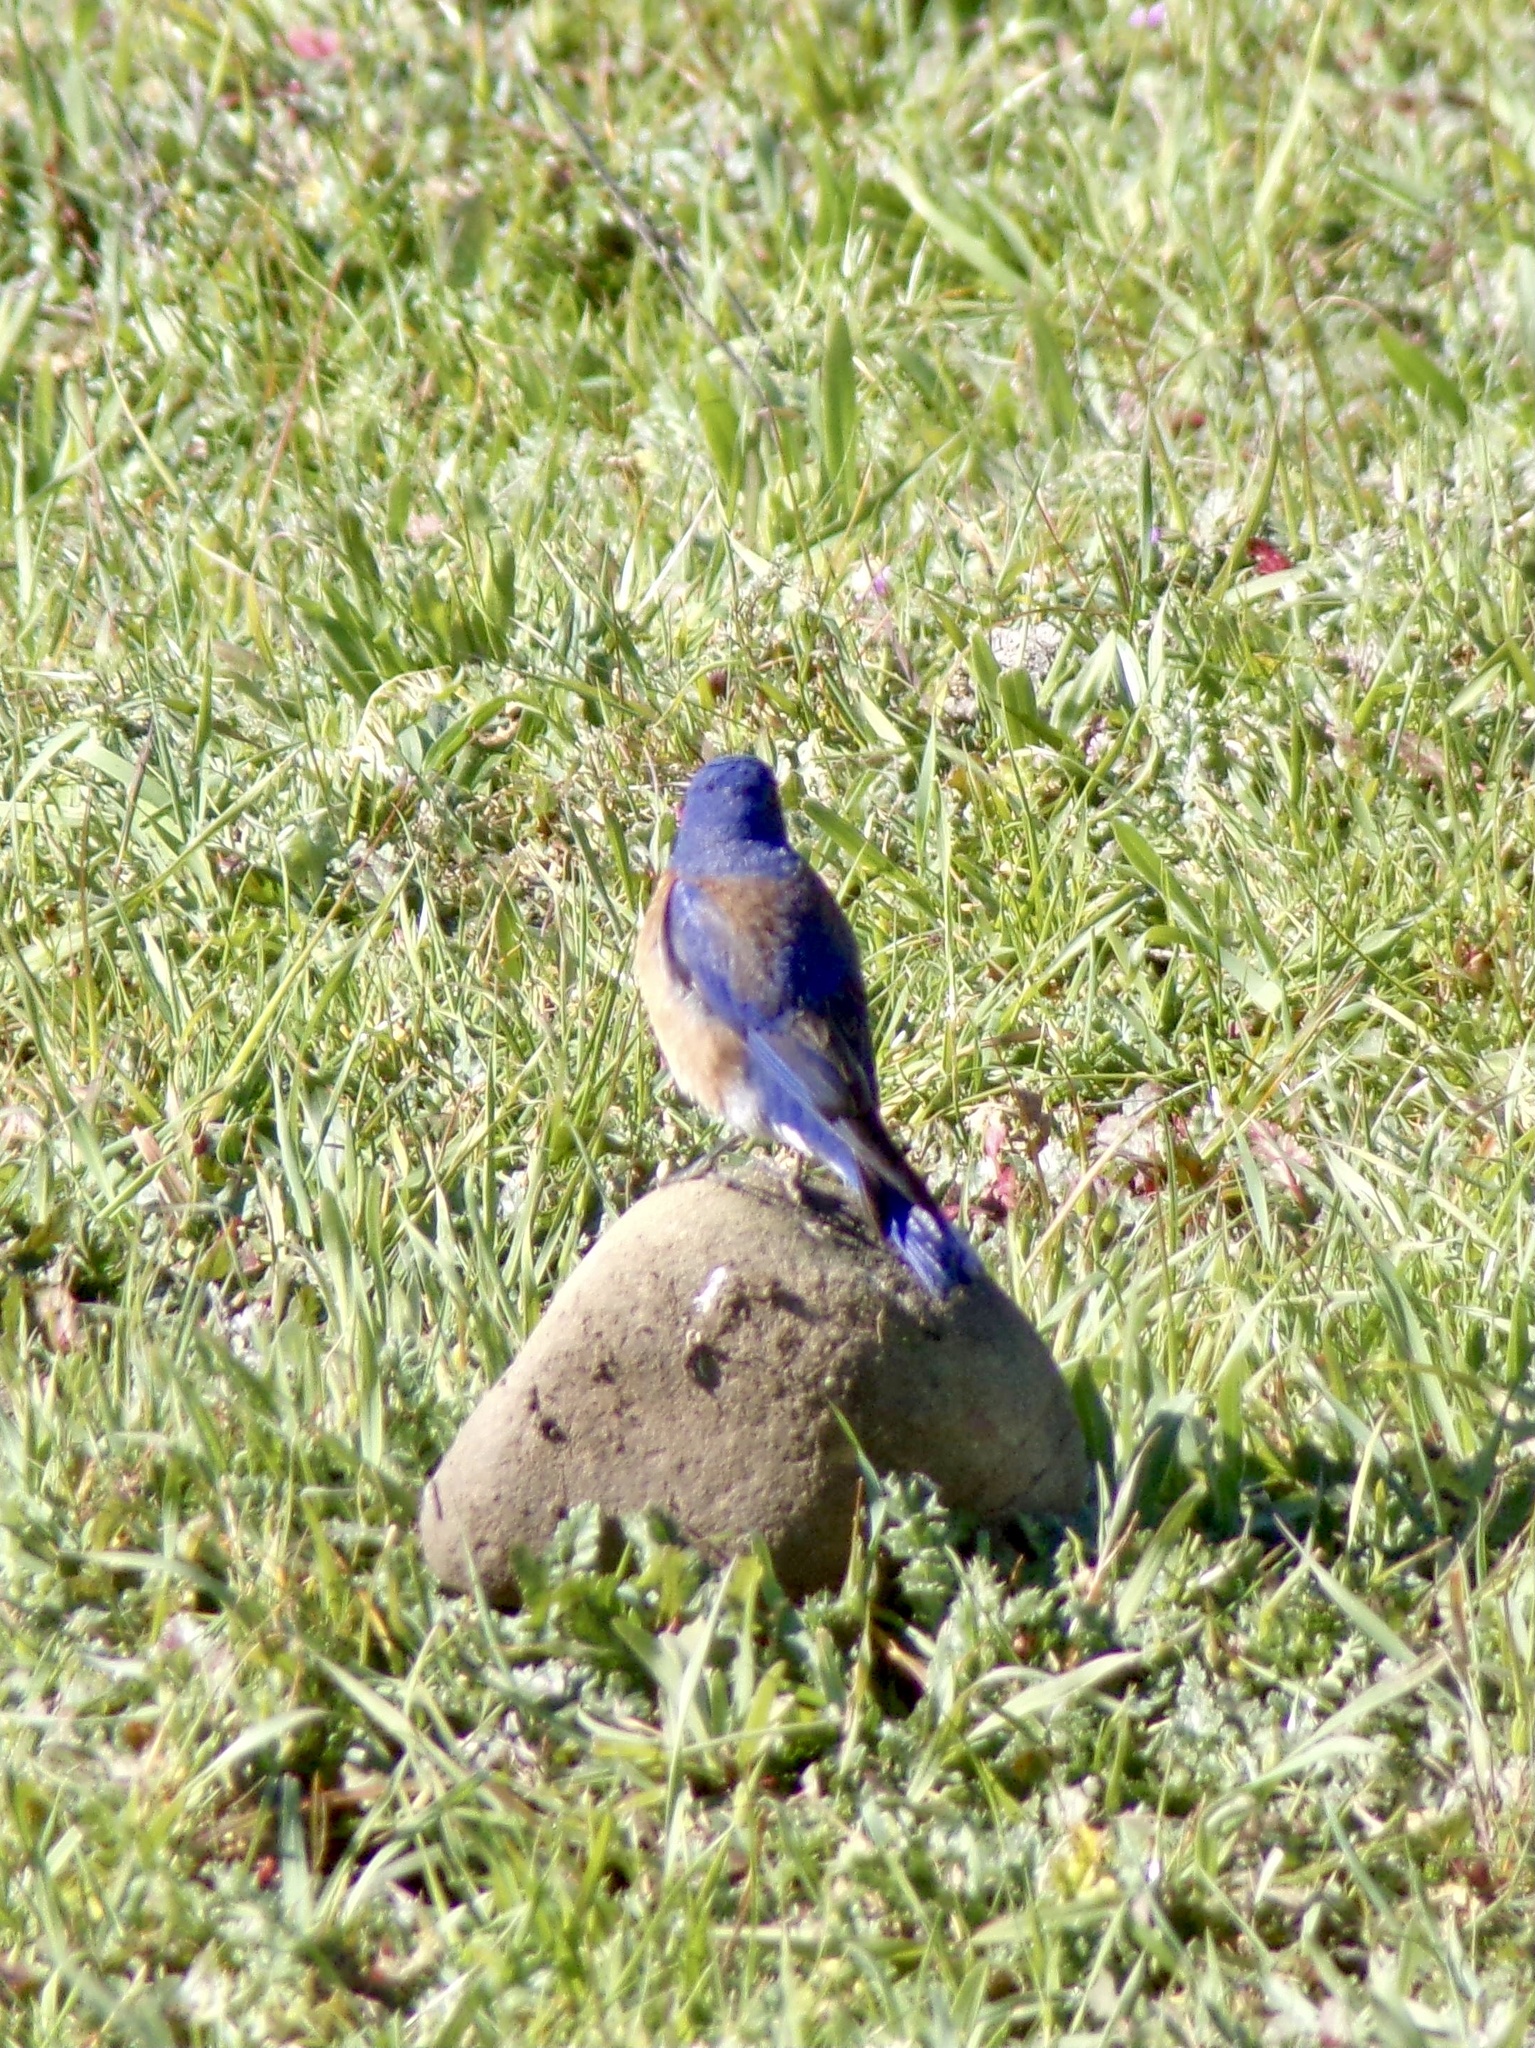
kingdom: Animalia
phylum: Chordata
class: Aves
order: Passeriformes
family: Turdidae
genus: Sialia
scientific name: Sialia mexicana
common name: Western bluebird
